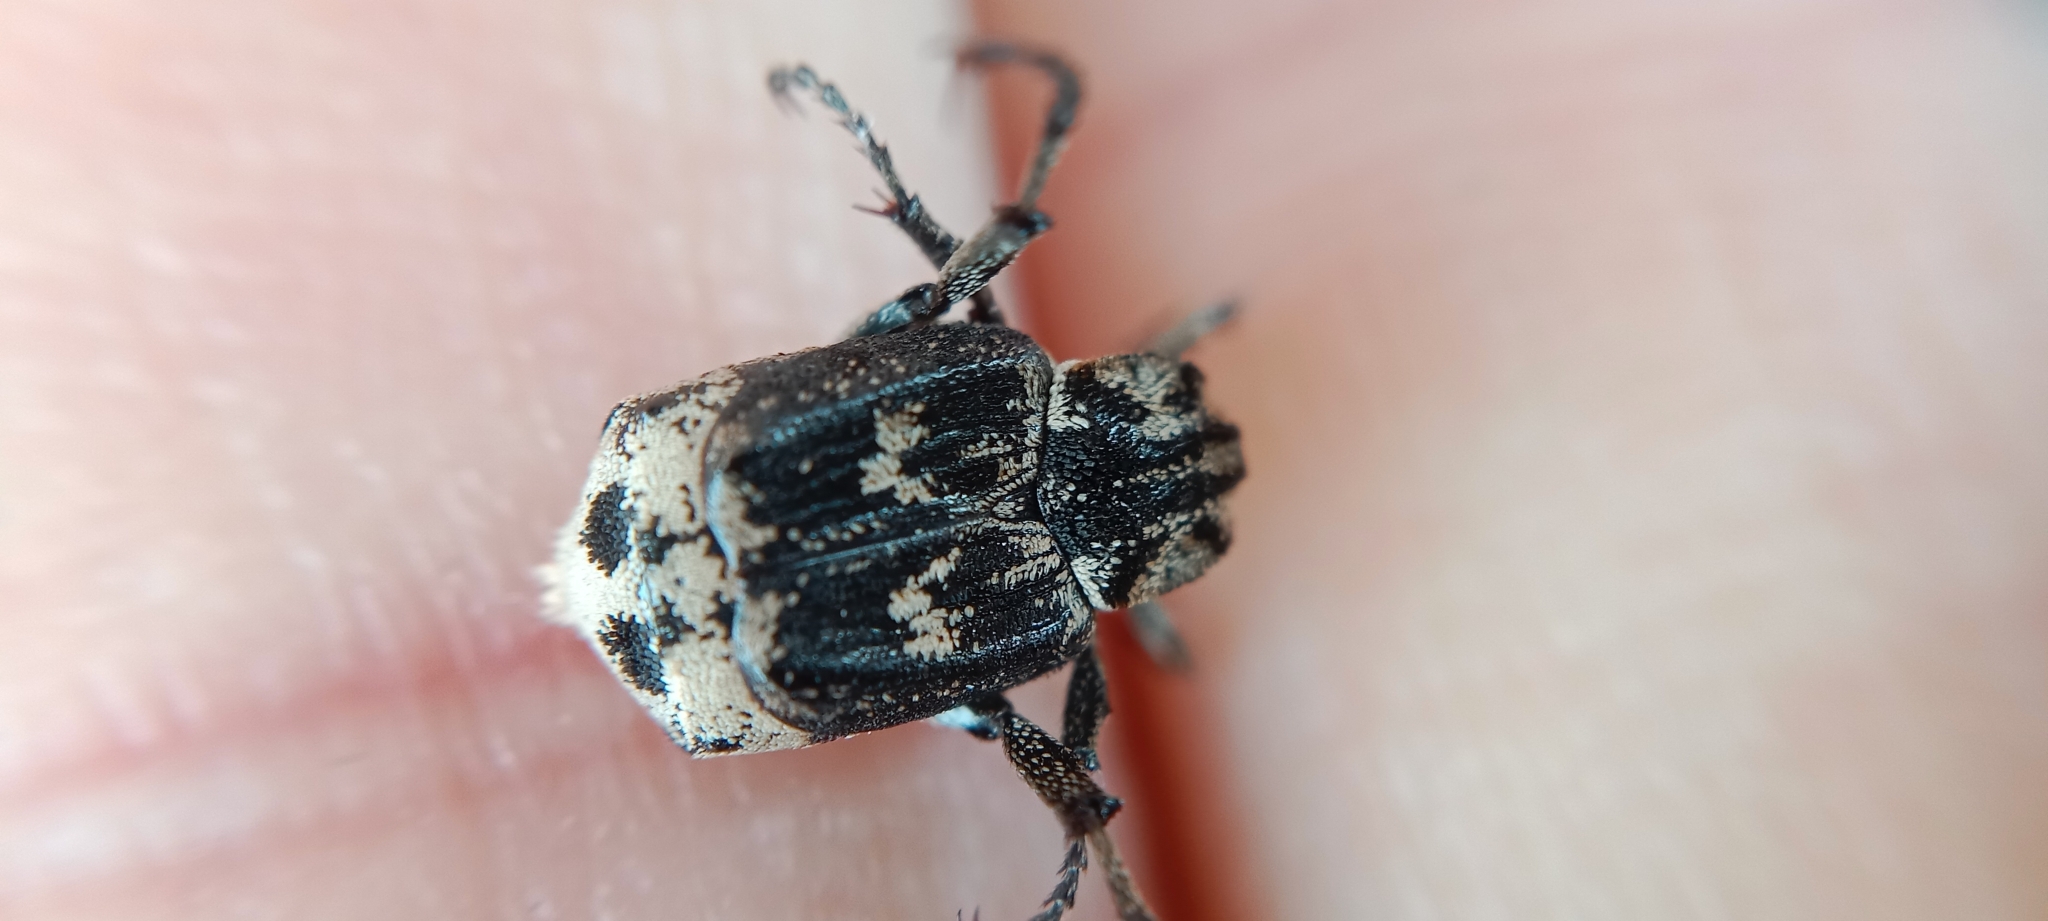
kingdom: Animalia
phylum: Arthropoda
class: Insecta
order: Coleoptera
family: Scarabaeidae
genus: Valgus
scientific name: Valgus hemipterus
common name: Bug flower chafer
